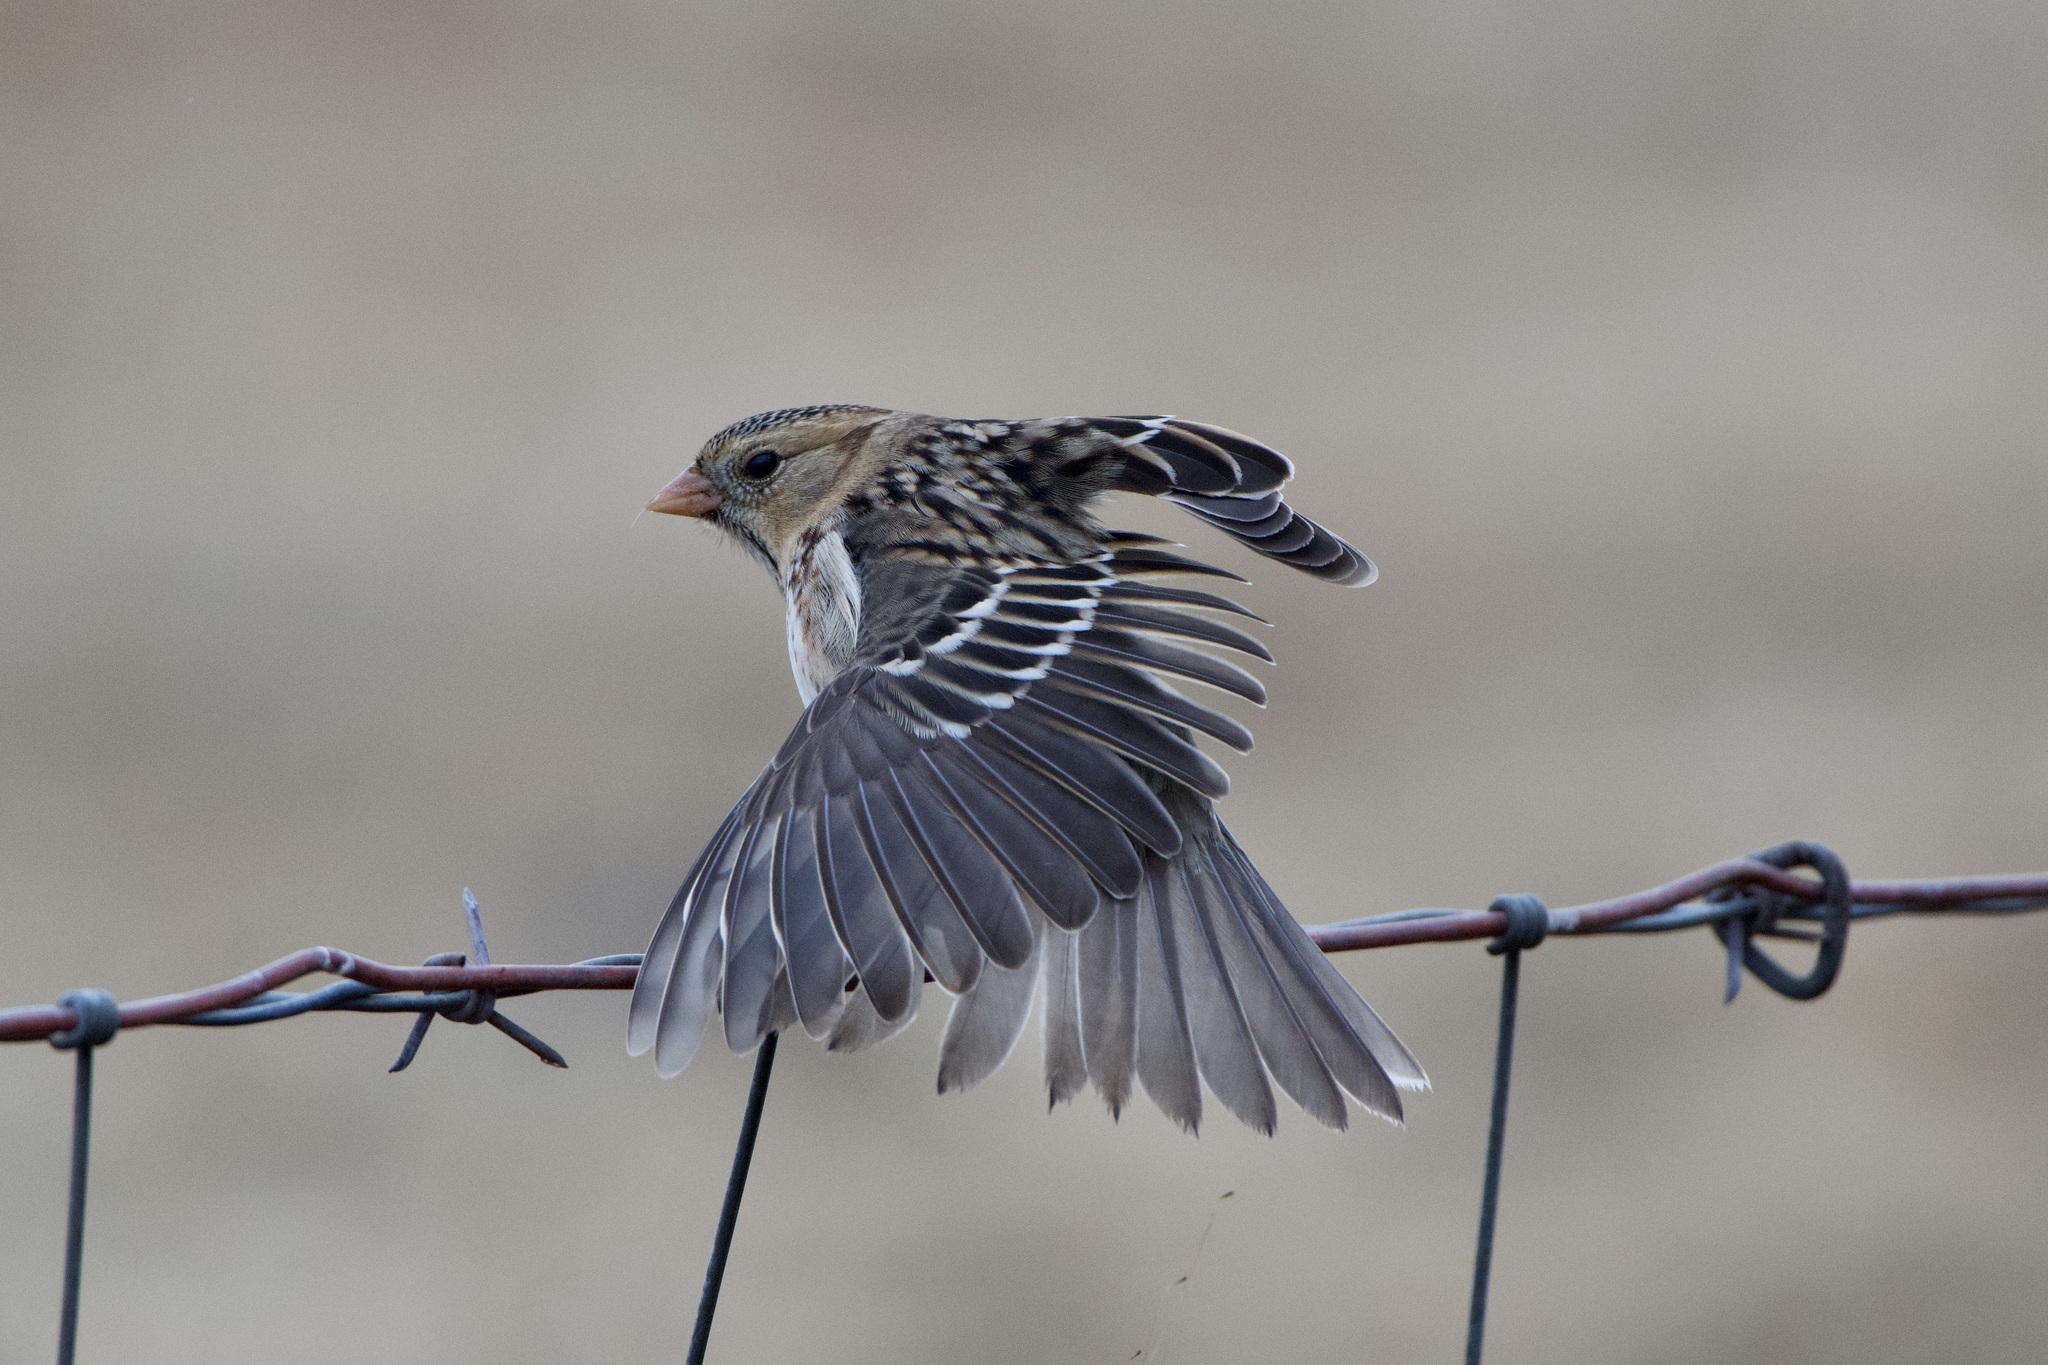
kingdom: Animalia
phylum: Chordata
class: Aves
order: Passeriformes
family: Passerellidae
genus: Zonotrichia
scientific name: Zonotrichia querula
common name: Harris's sparrow
